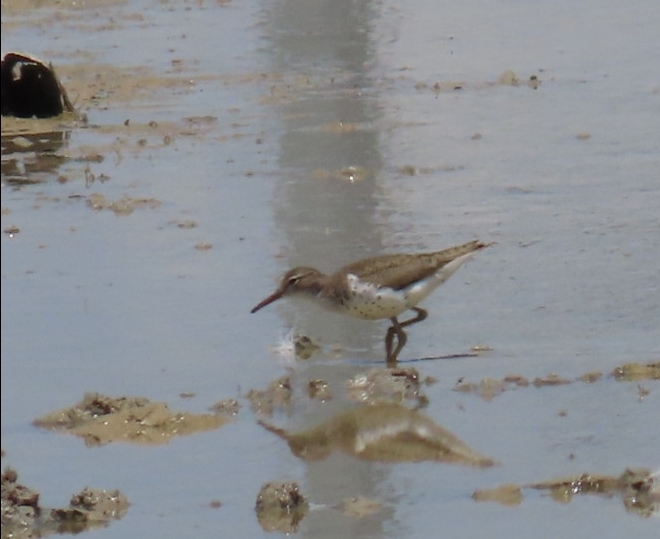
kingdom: Animalia
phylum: Chordata
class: Aves
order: Charadriiformes
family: Scolopacidae
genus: Actitis
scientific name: Actitis macularius
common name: Spotted sandpiper
